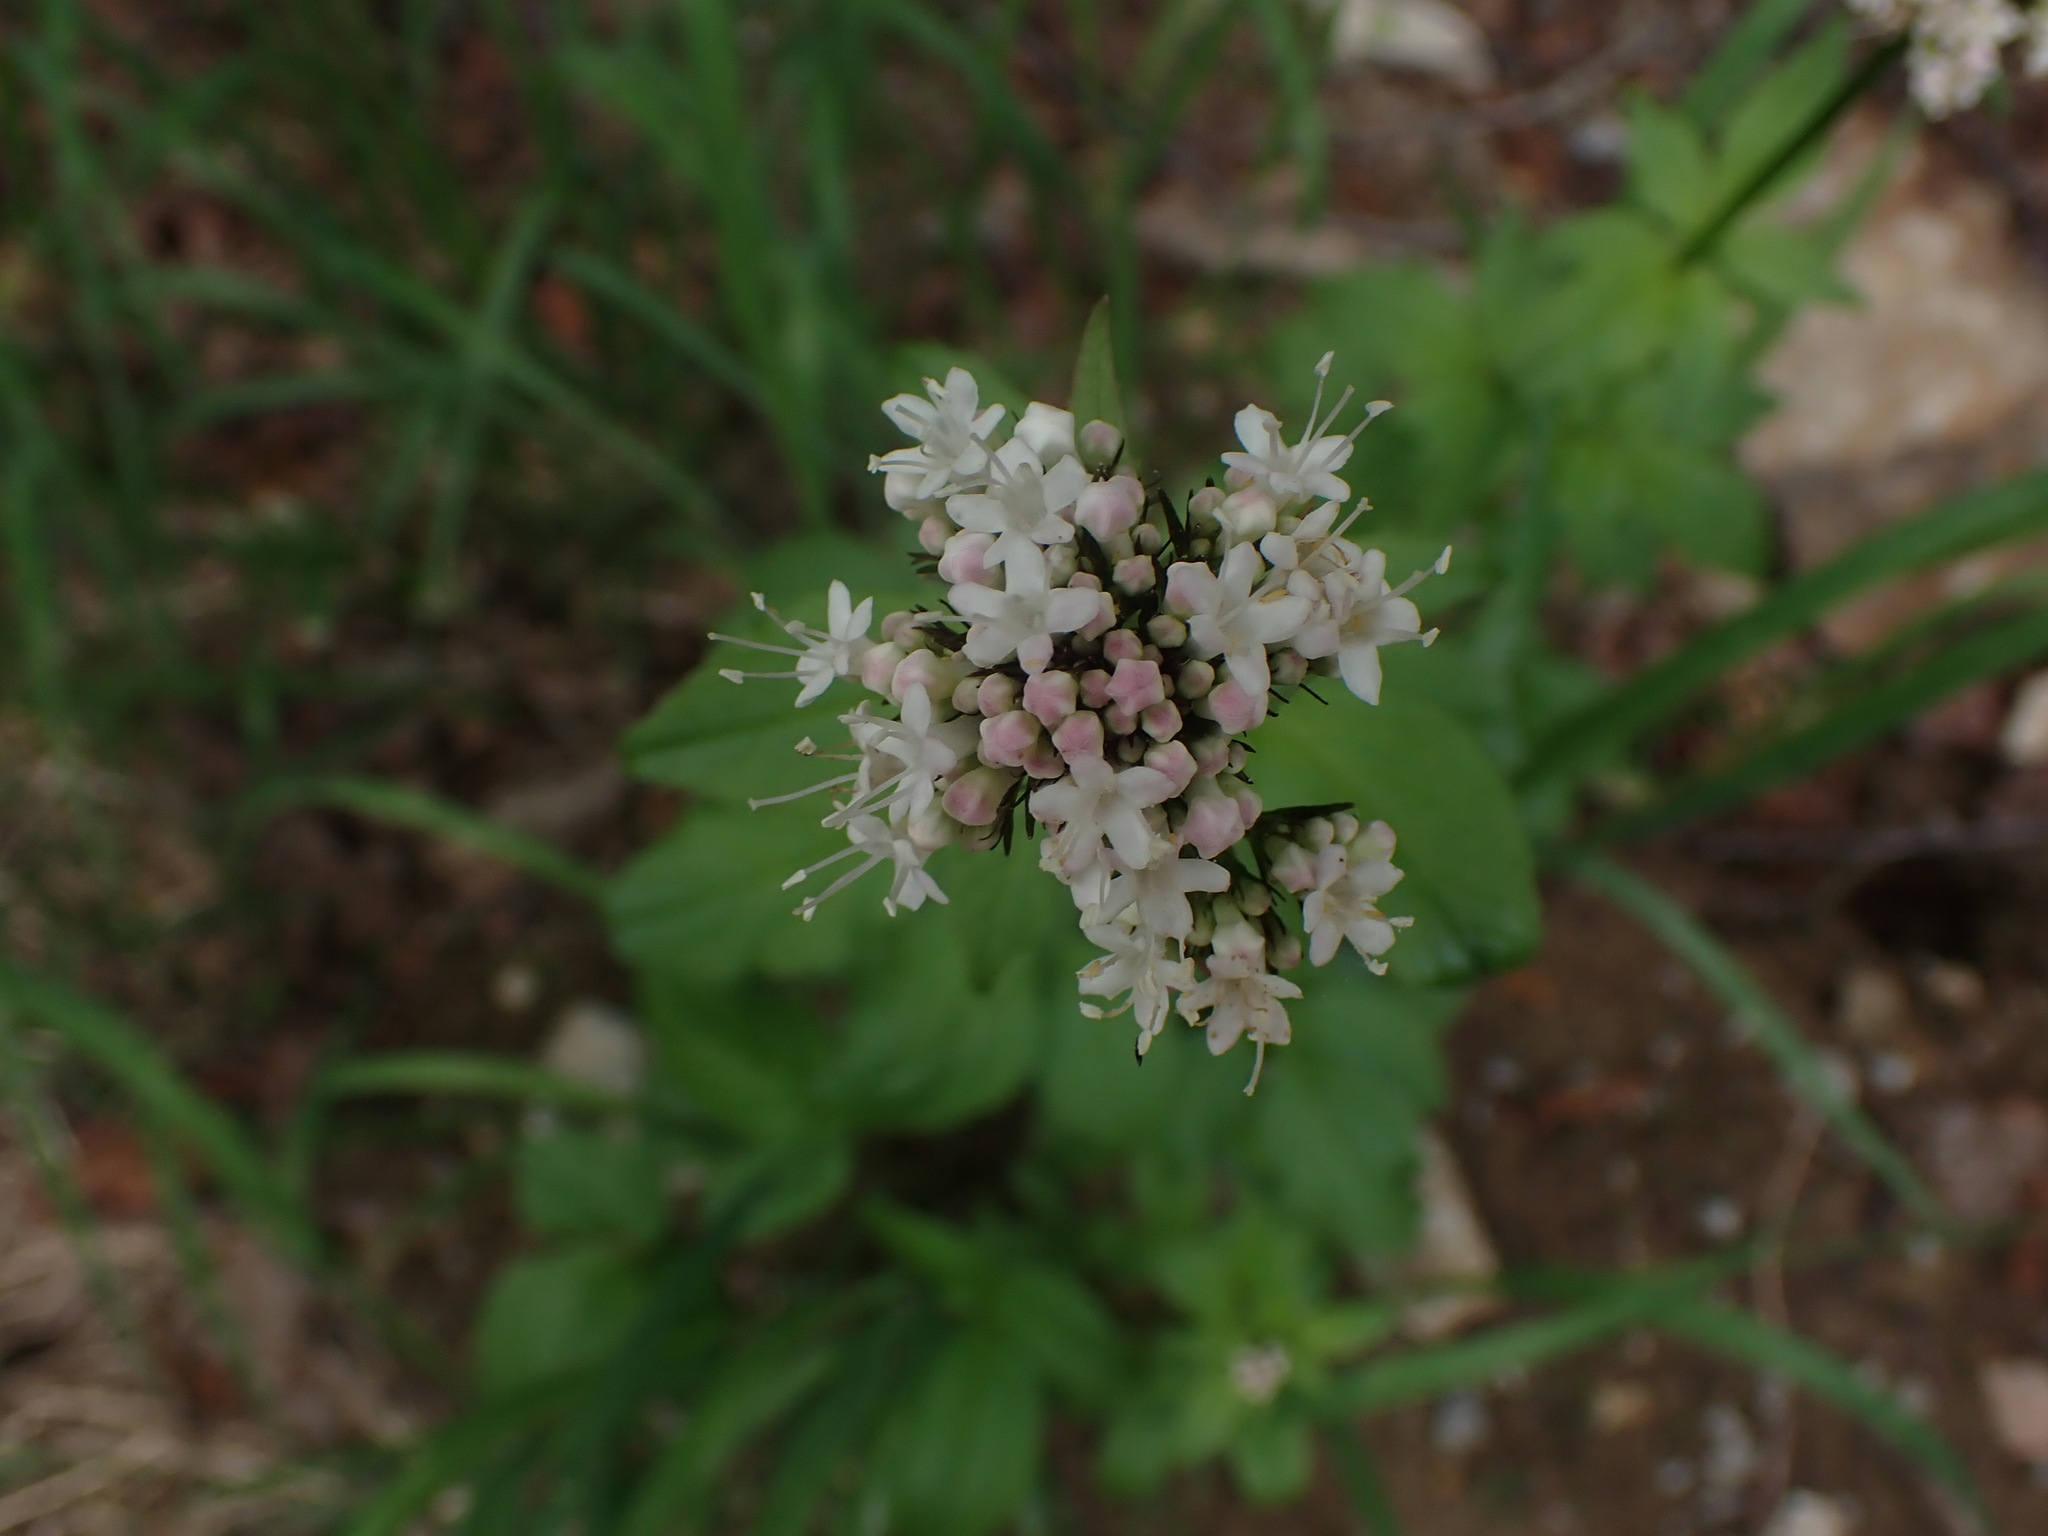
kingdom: Plantae
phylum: Tracheophyta
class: Magnoliopsida
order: Dipsacales
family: Caprifoliaceae
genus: Valeriana
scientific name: Valeriana sitchensis
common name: Pacific valerian
